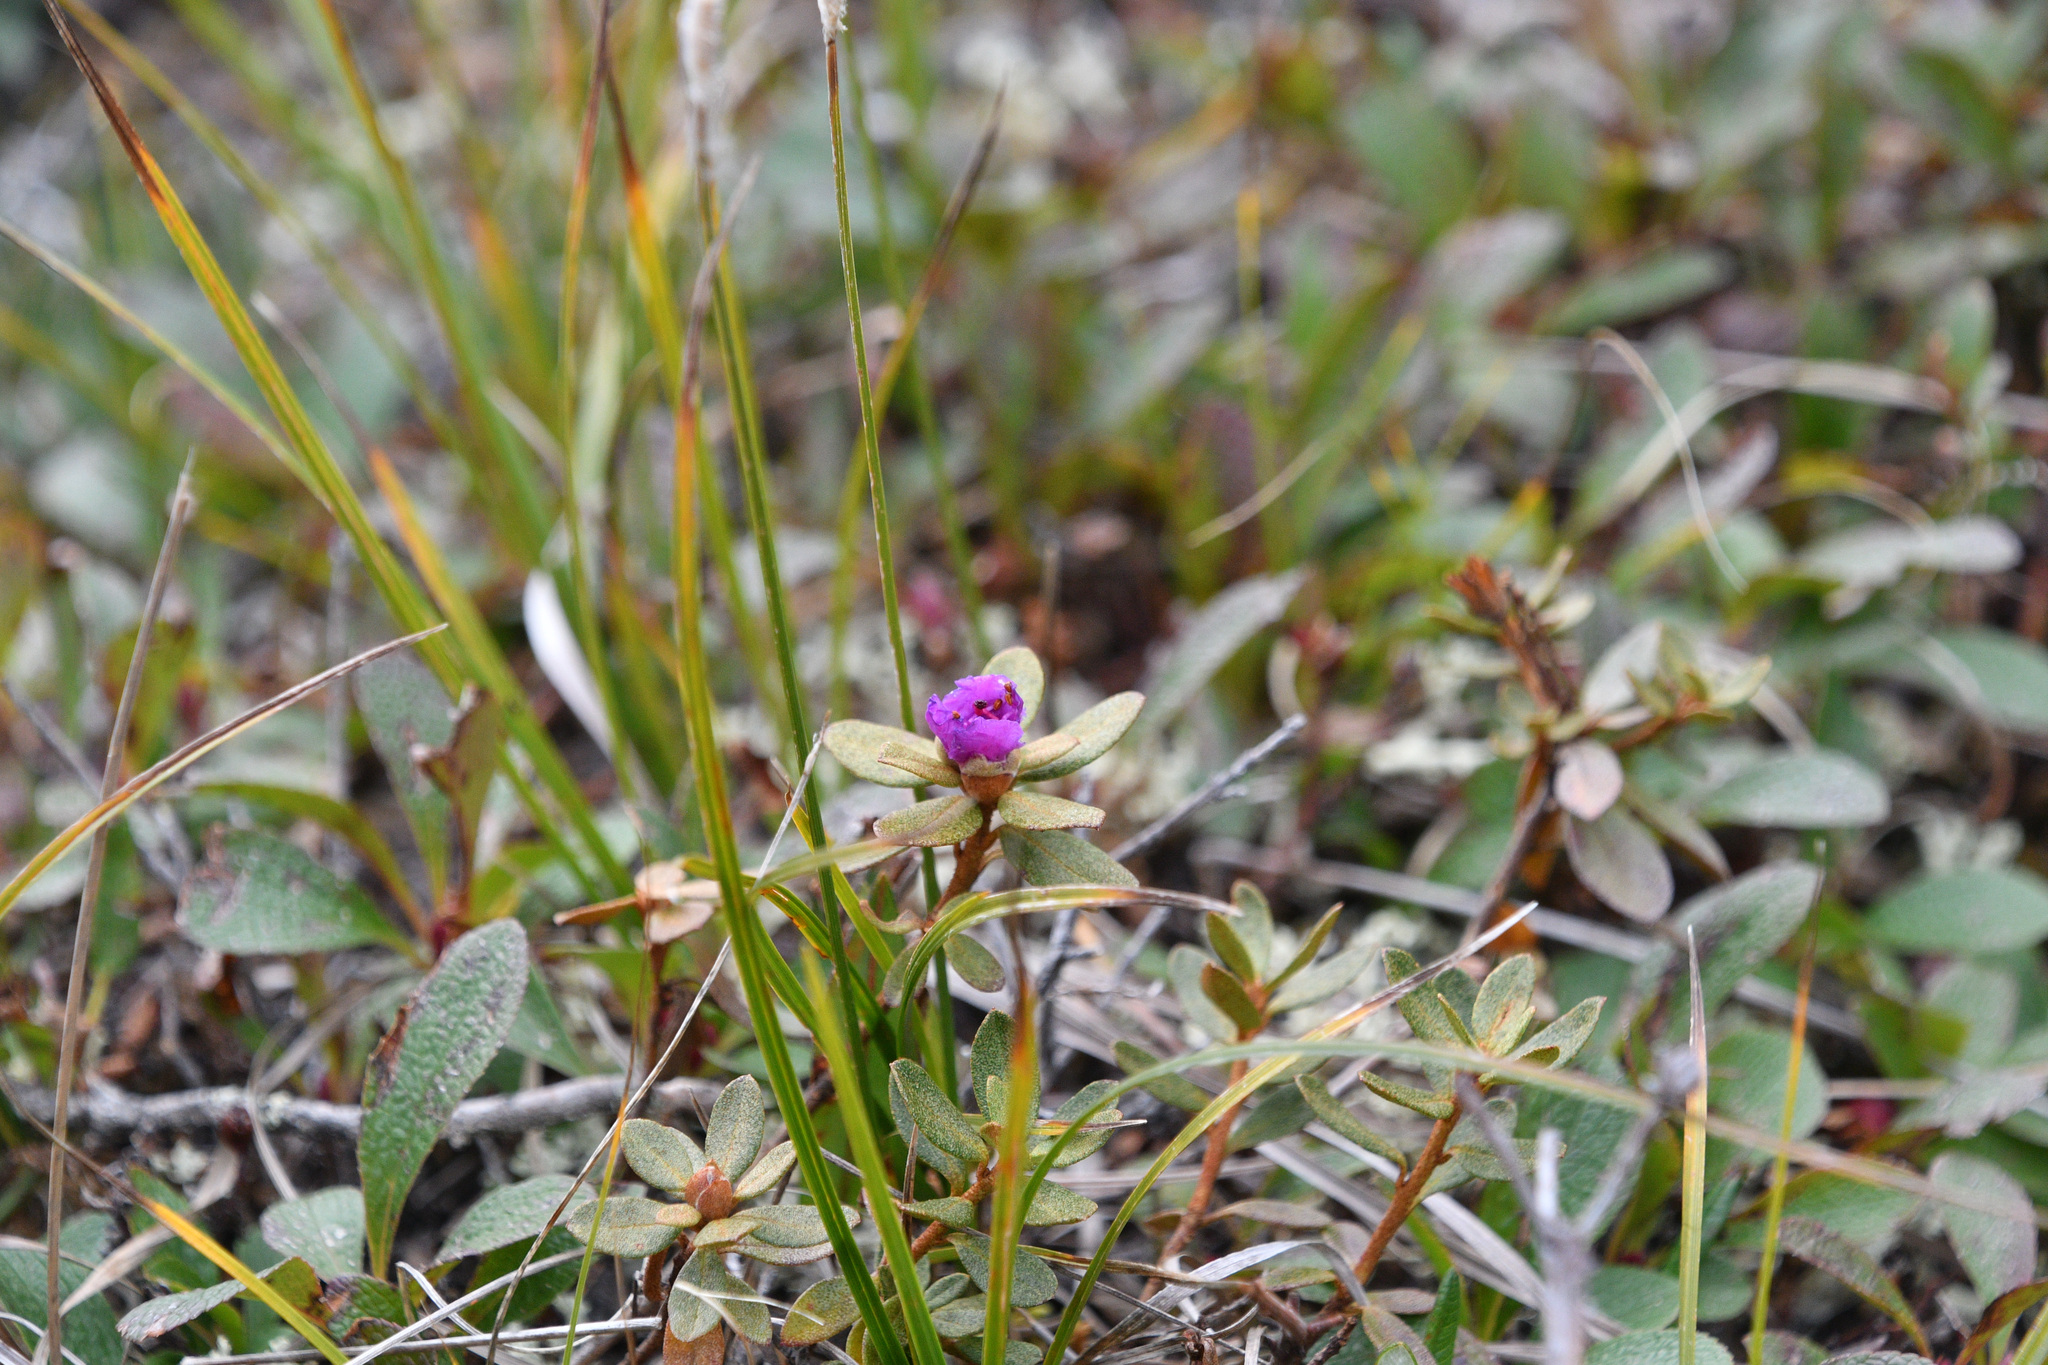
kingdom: Plantae
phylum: Tracheophyta
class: Magnoliopsida
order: Ericales
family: Ericaceae
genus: Rhododendron
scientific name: Rhododendron lapponicum
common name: Lapland rhododendron
